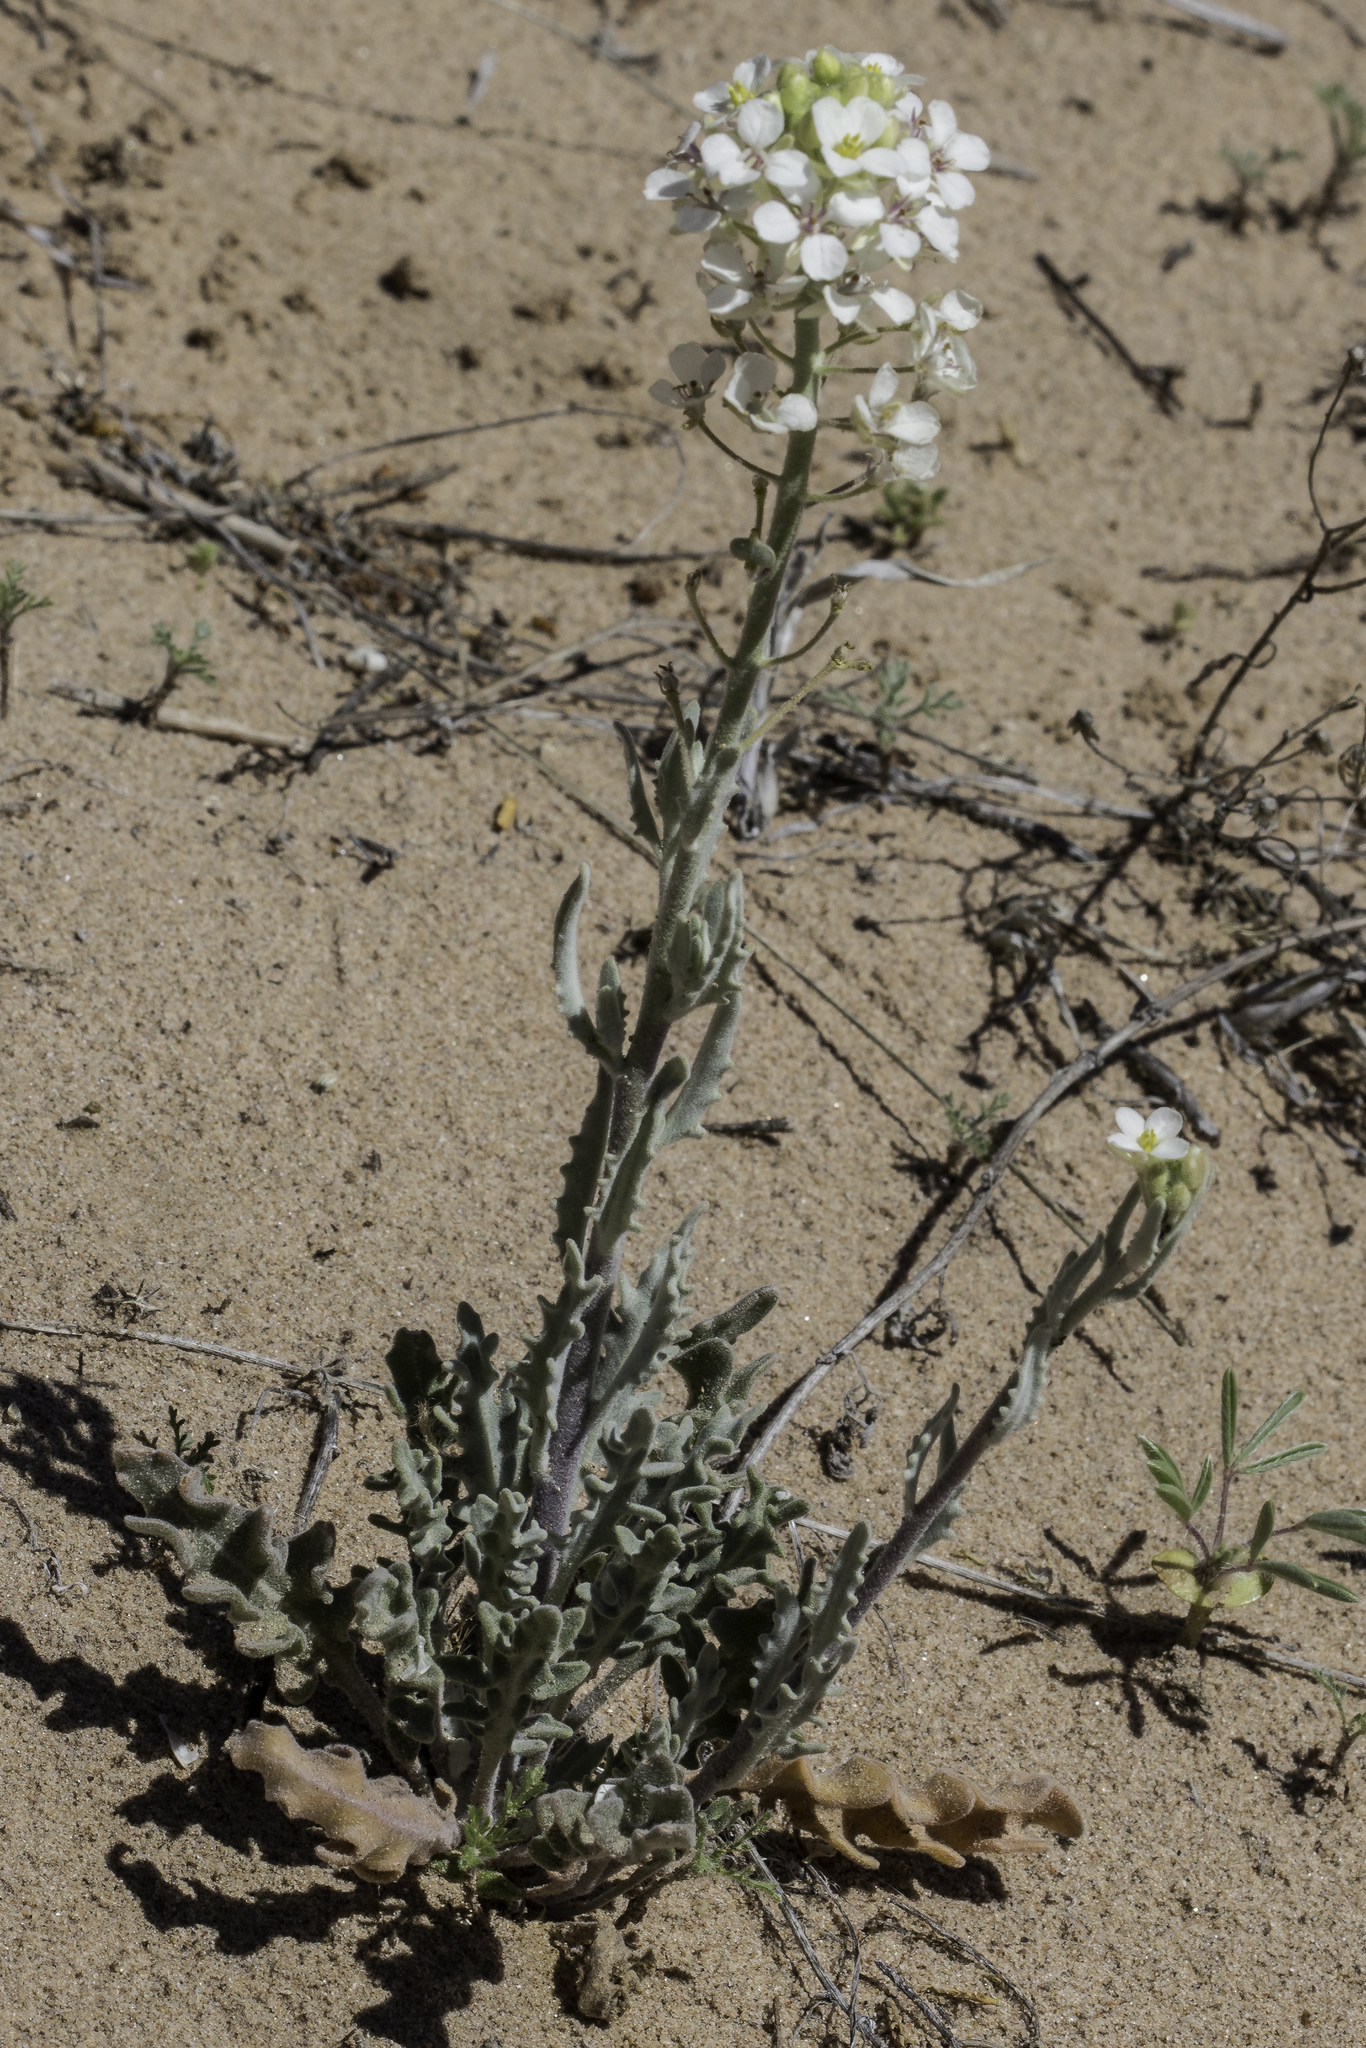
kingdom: Plantae
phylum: Tracheophyta
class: Magnoliopsida
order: Brassicales
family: Brassicaceae
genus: Dimorphocarpa
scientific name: Dimorphocarpa wislizenii
